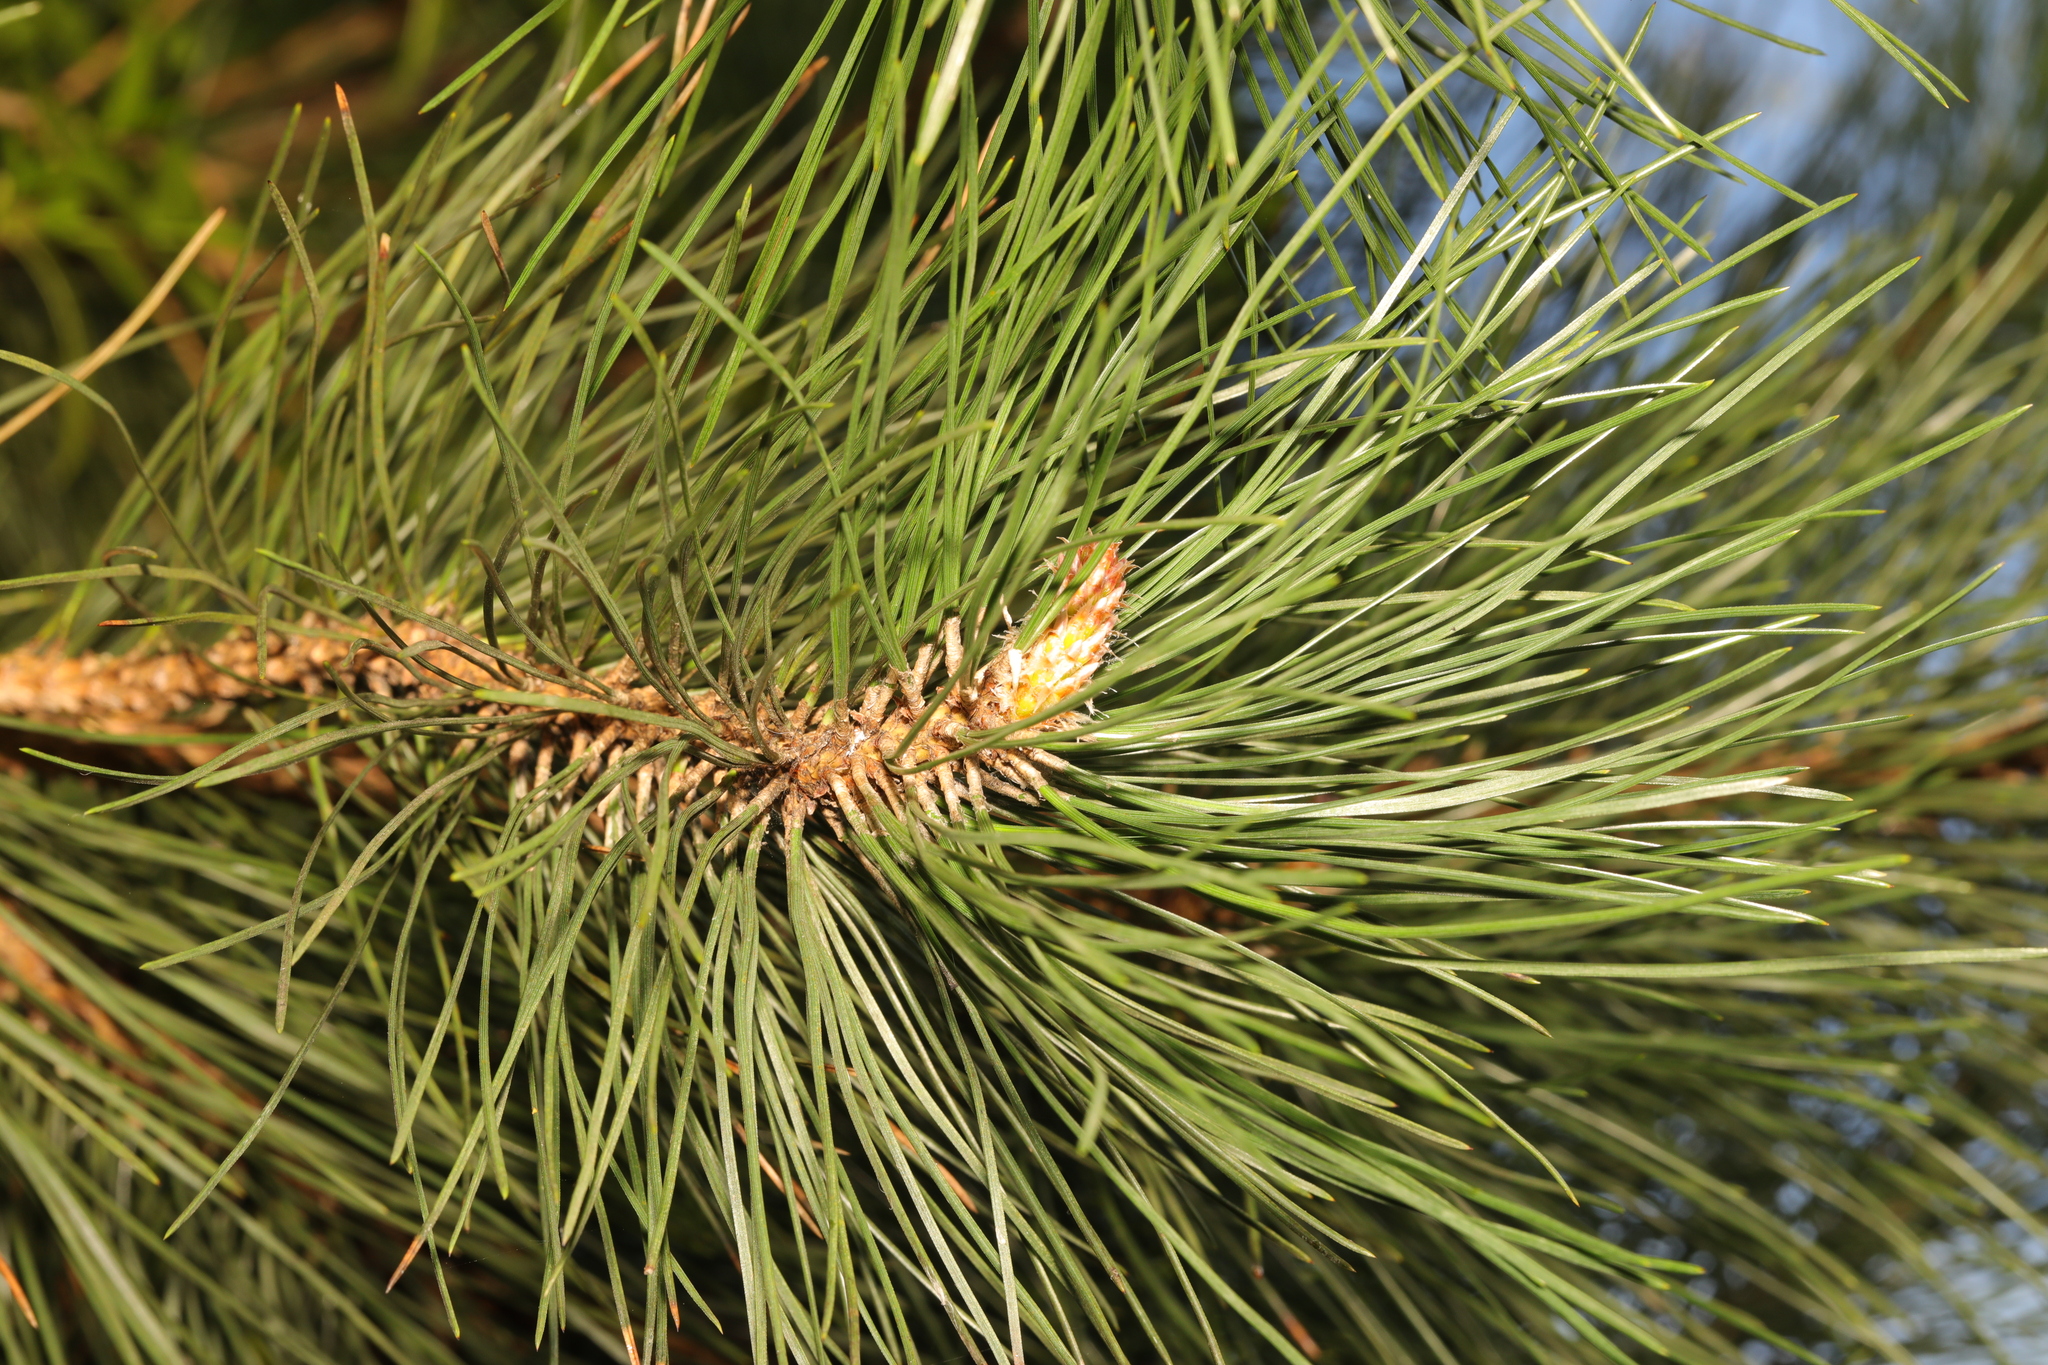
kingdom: Plantae
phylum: Tracheophyta
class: Pinopsida
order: Pinales
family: Pinaceae
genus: Pinus
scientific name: Pinus nigra
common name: Austrian pine
